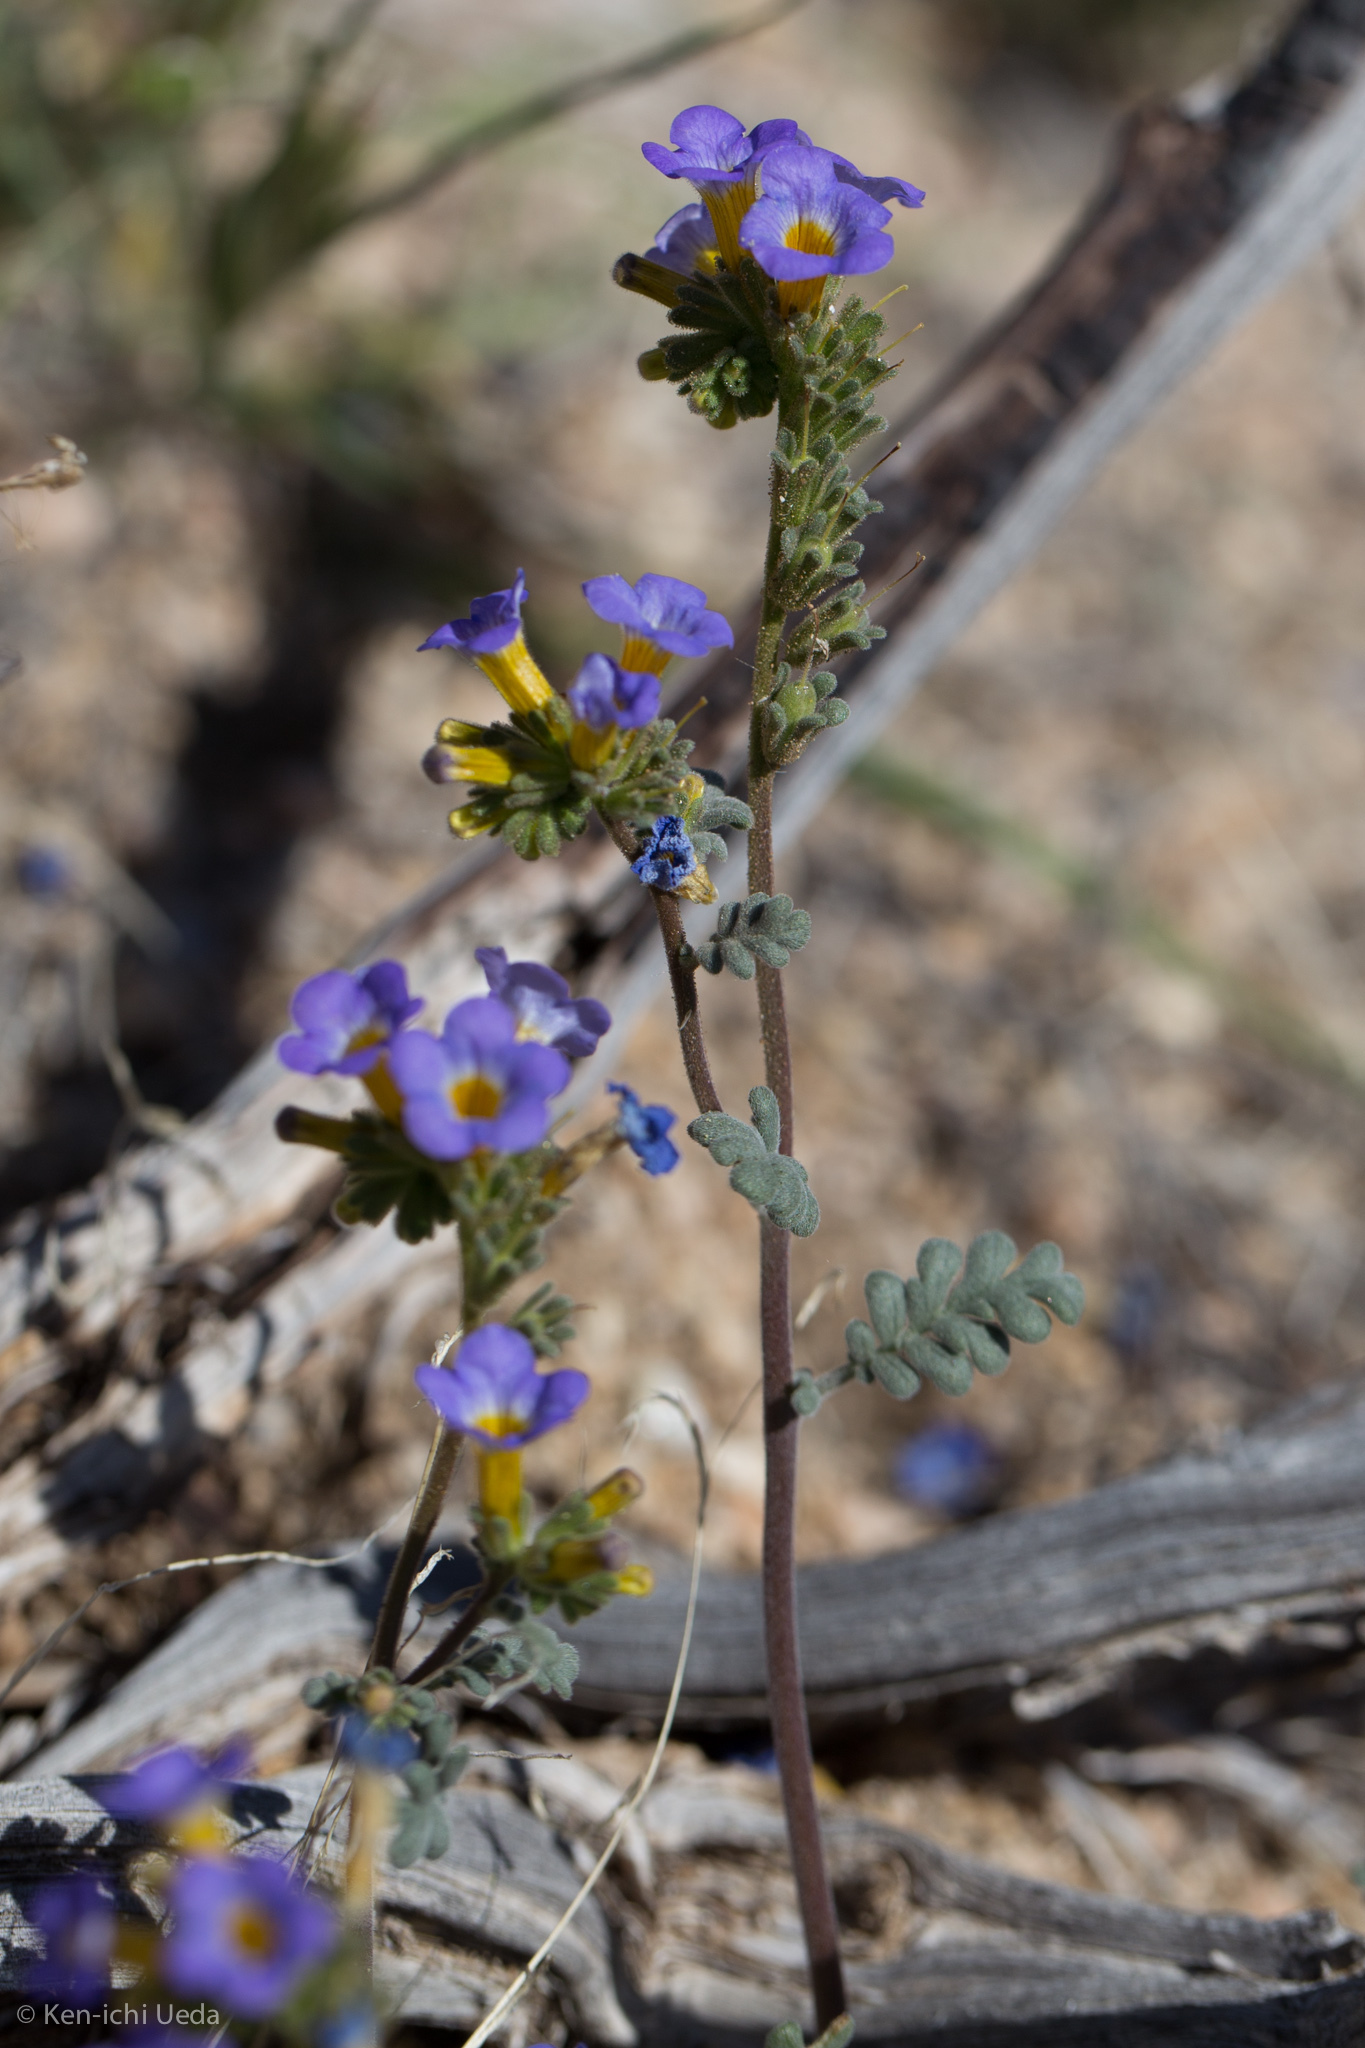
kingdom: Plantae
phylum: Tracheophyta
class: Magnoliopsida
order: Boraginales
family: Hydrophyllaceae
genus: Phacelia
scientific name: Phacelia fremontii
